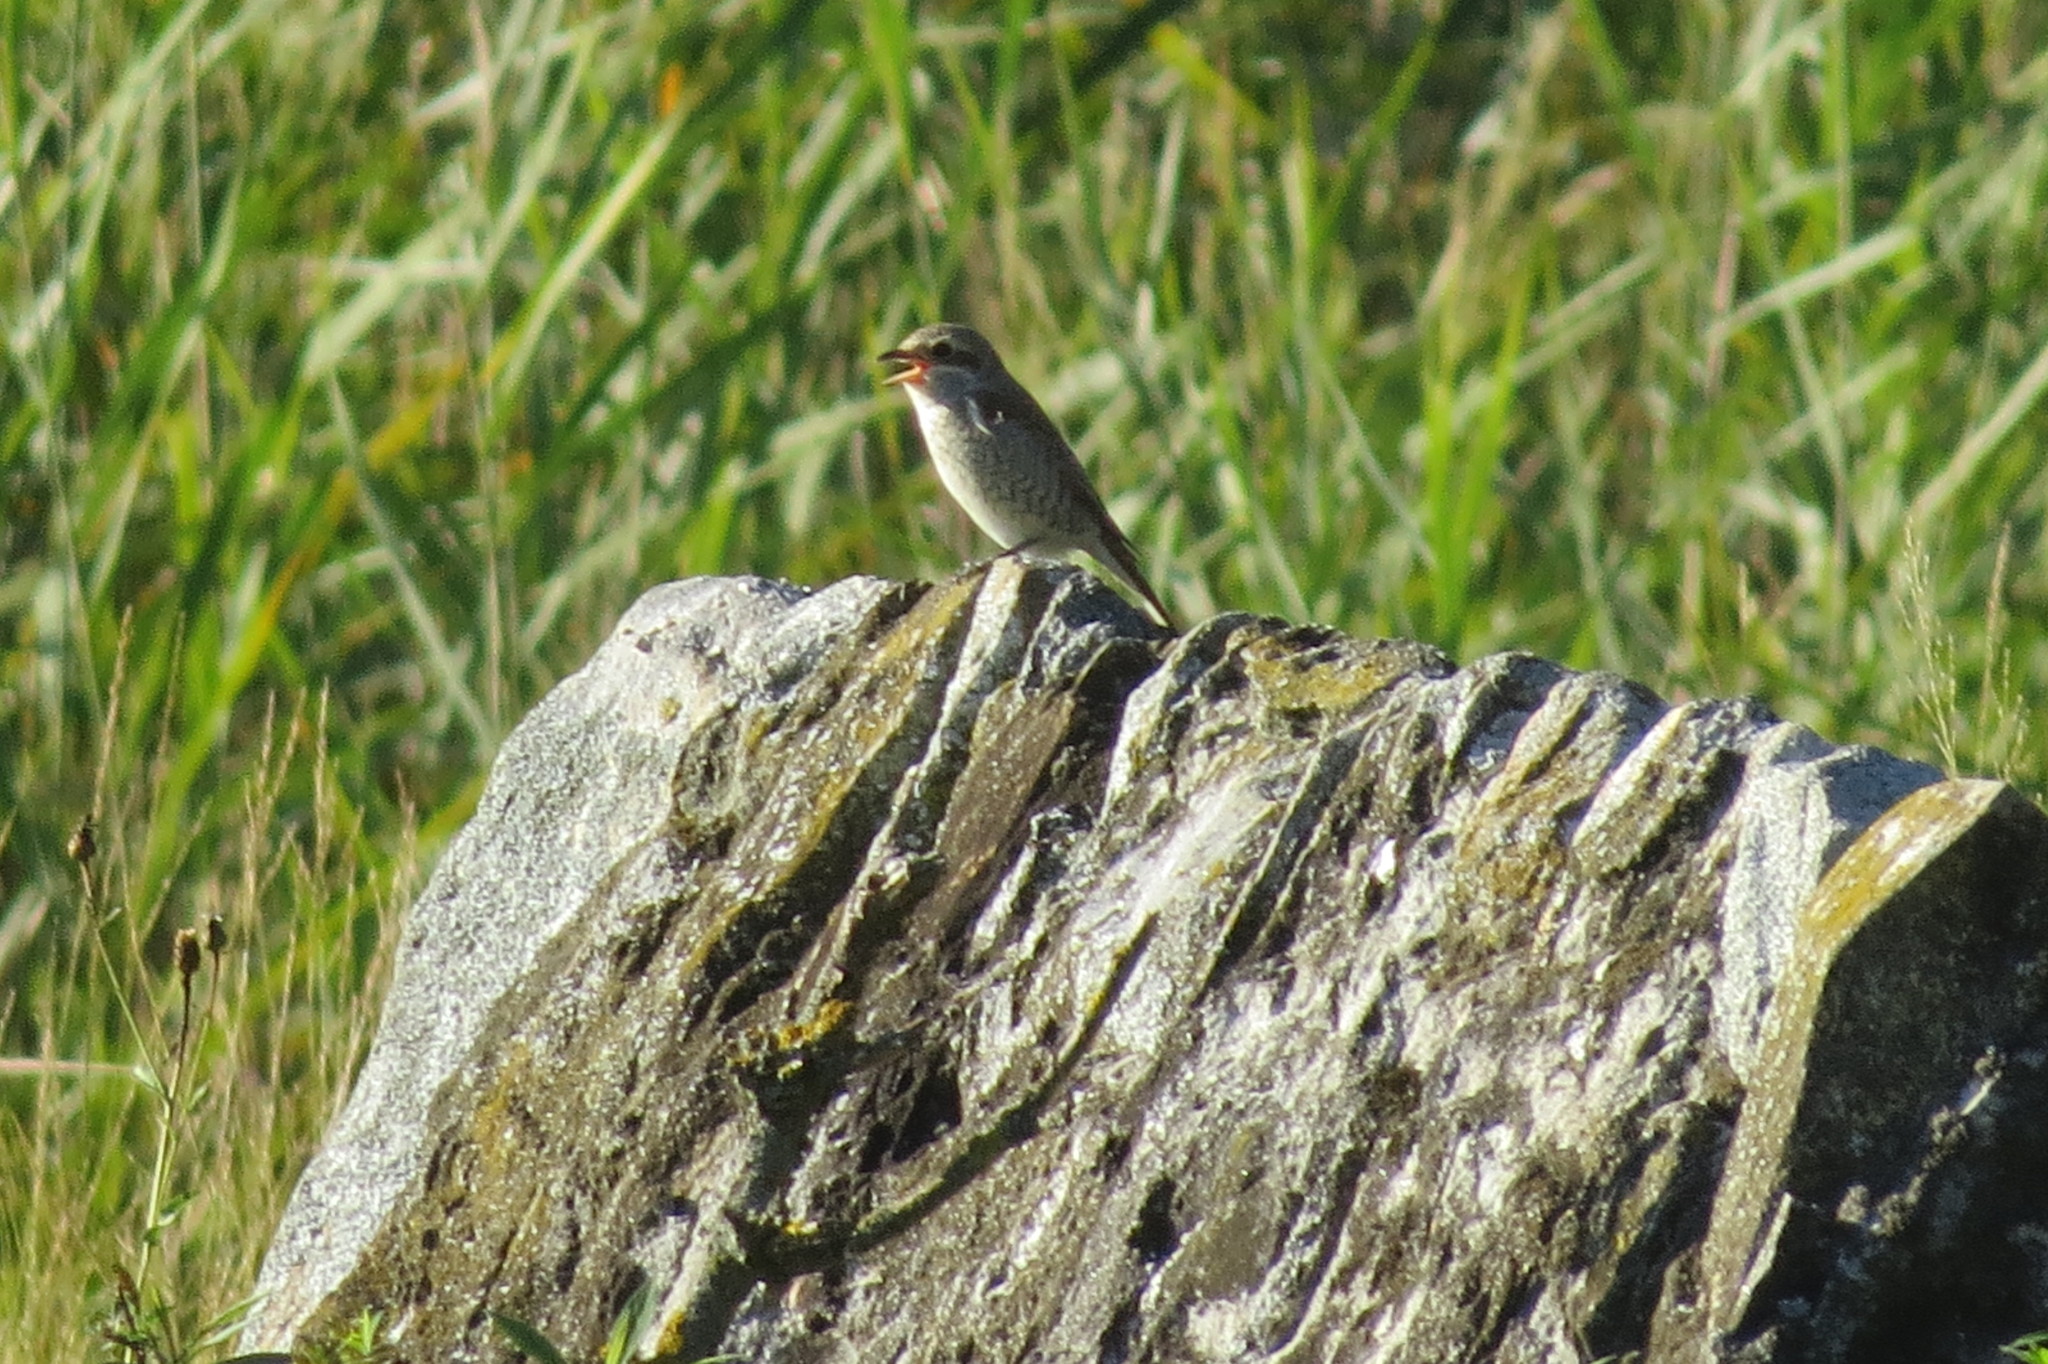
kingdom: Animalia
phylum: Chordata
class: Aves
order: Passeriformes
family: Laniidae
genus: Lanius
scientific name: Lanius collurio
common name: Red-backed shrike
